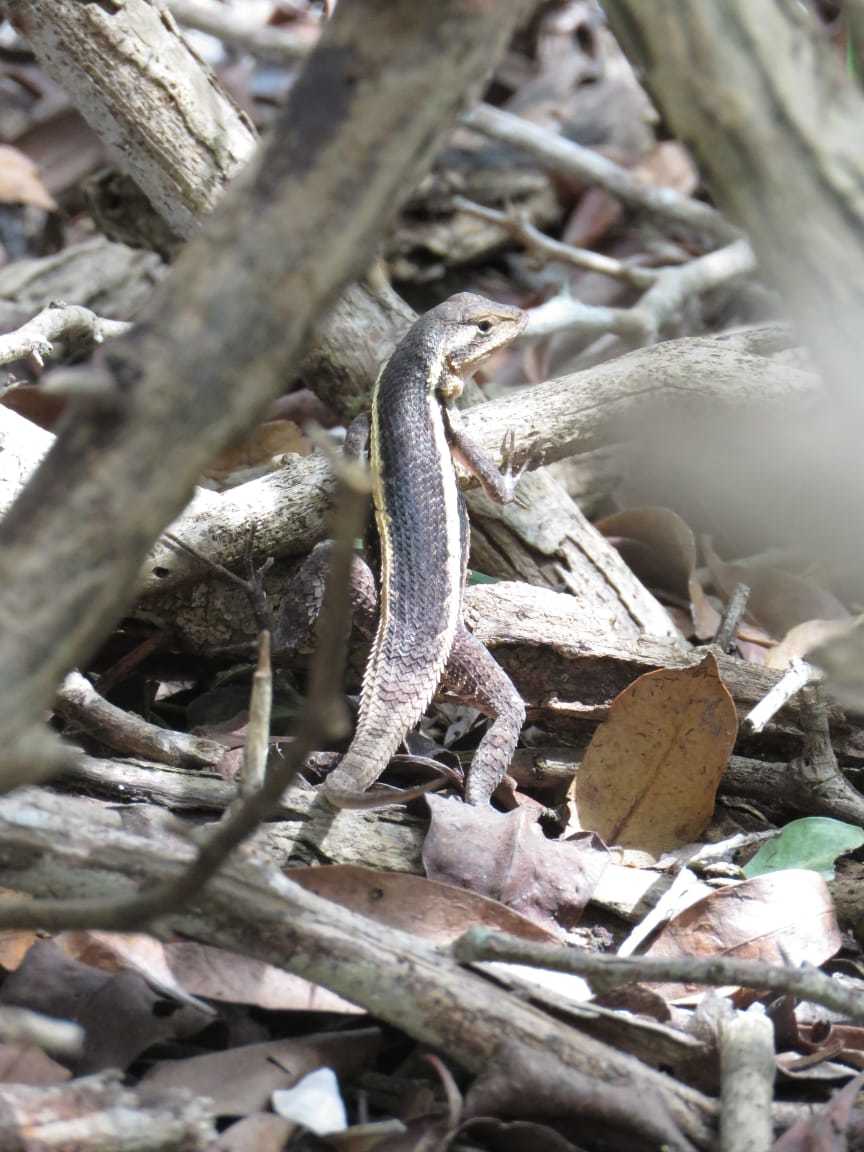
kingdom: Animalia
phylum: Chordata
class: Squamata
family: Phrynosomatidae
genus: Sceloporus
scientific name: Sceloporus chrysostictus
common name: Yellow-spotted spiny lizard
